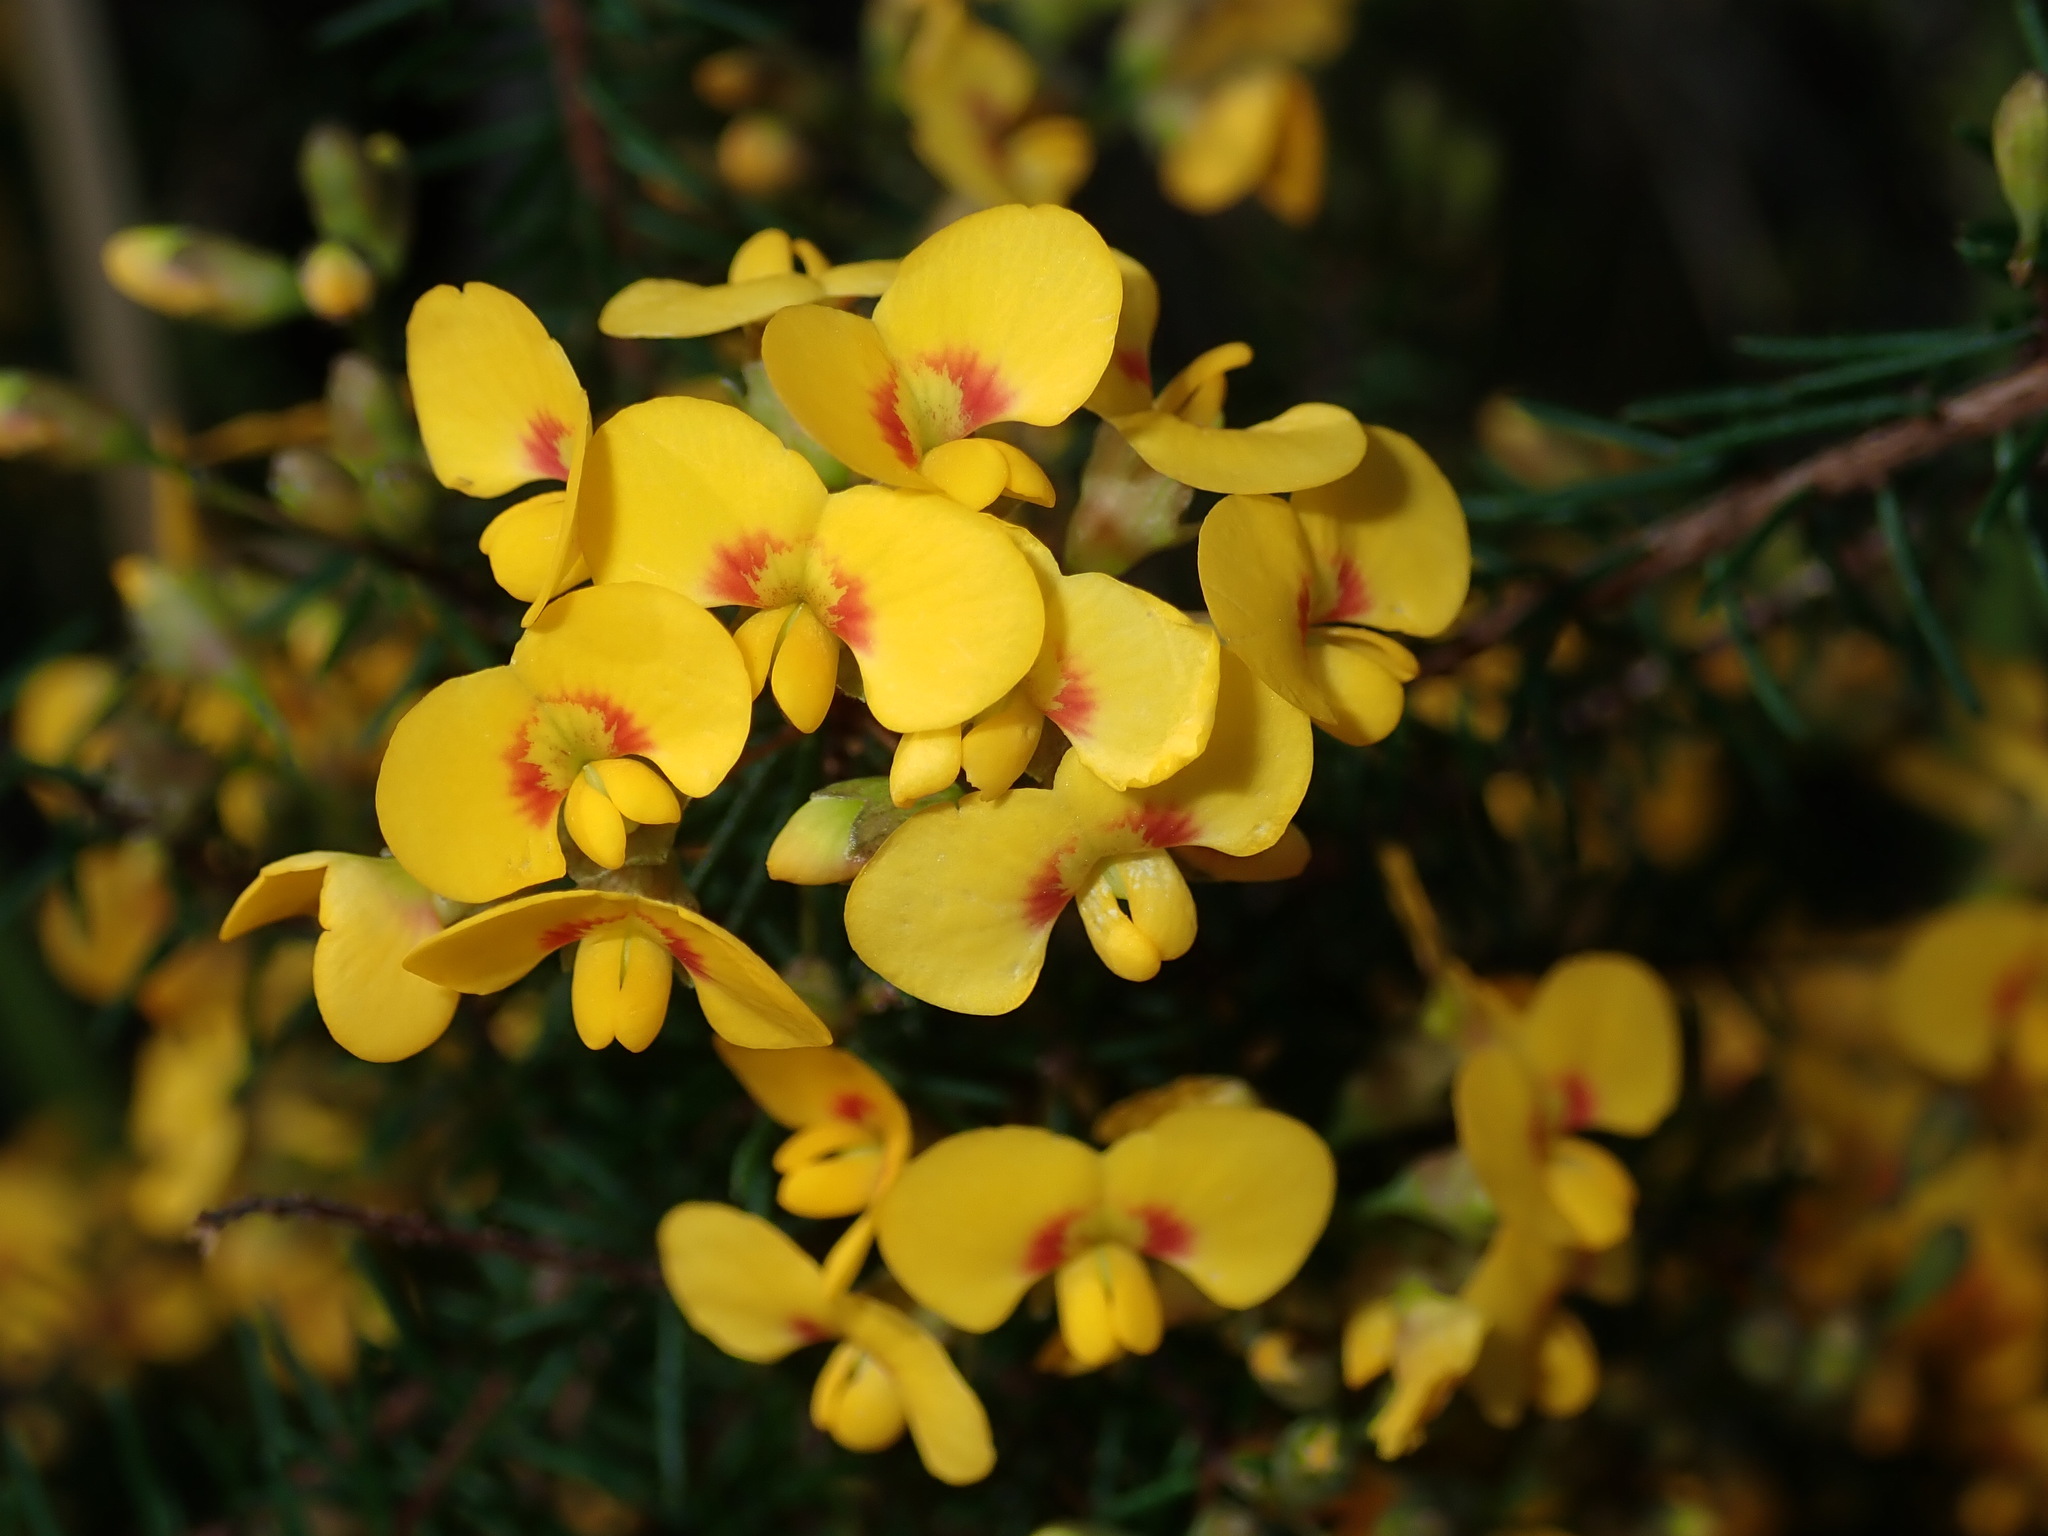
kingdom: Plantae
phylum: Tracheophyta
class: Magnoliopsida
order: Fabales
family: Fabaceae
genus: Dillwynia
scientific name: Dillwynia retorta
